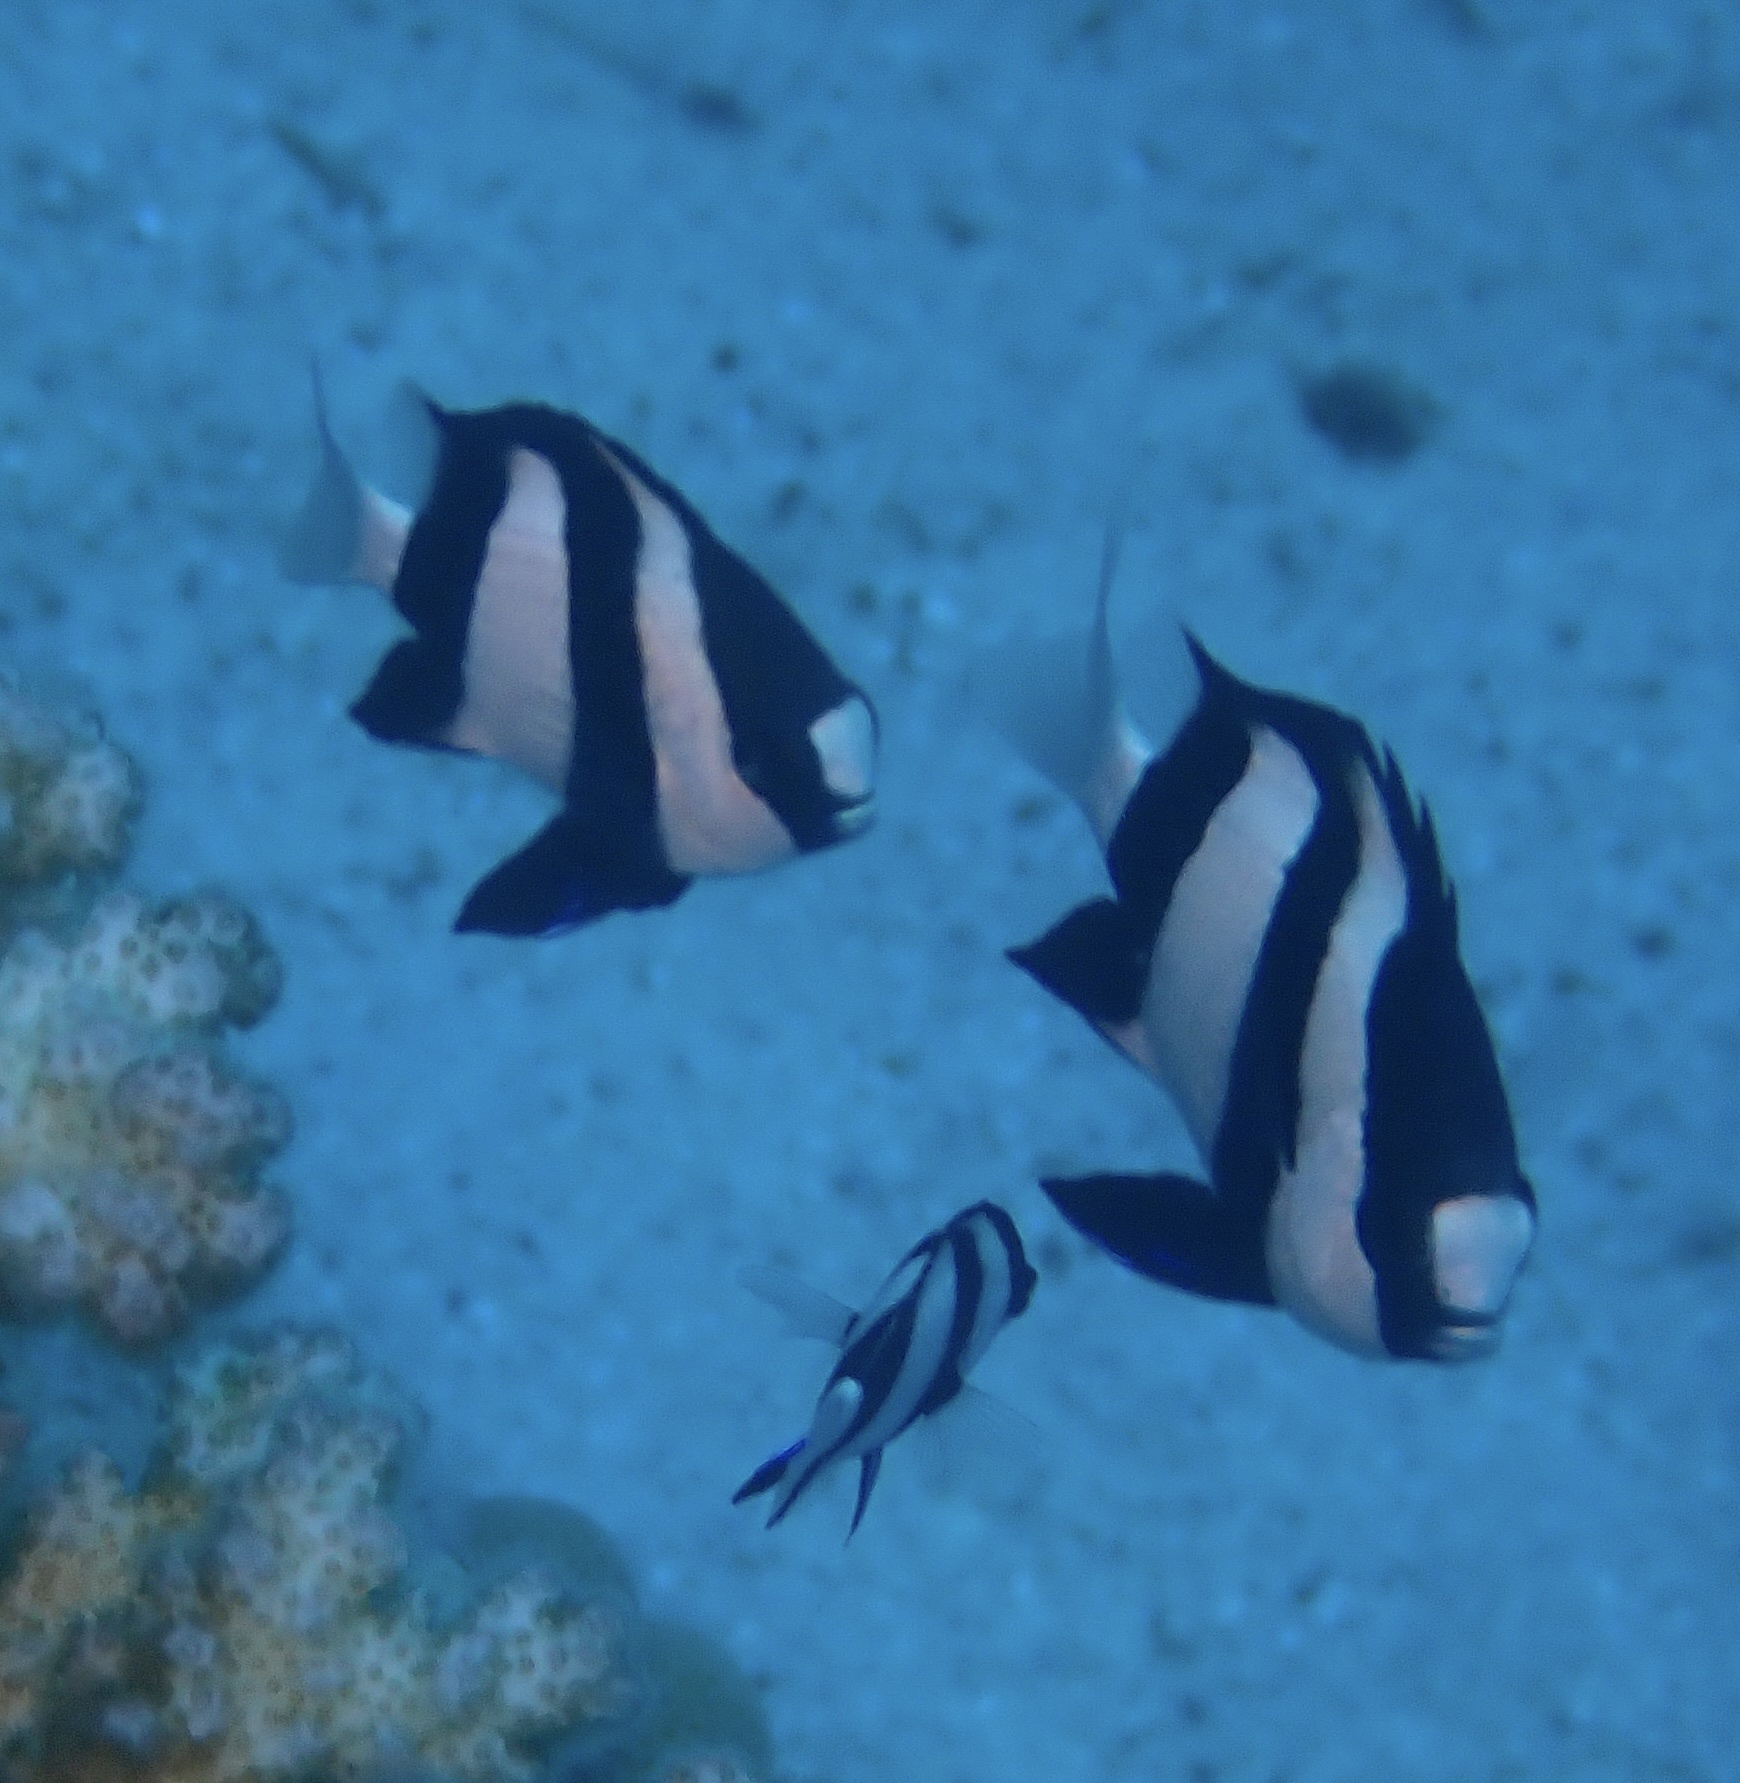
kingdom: Animalia
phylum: Chordata
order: Perciformes
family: Pomacentridae
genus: Dascyllus
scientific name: Dascyllus abudafur
